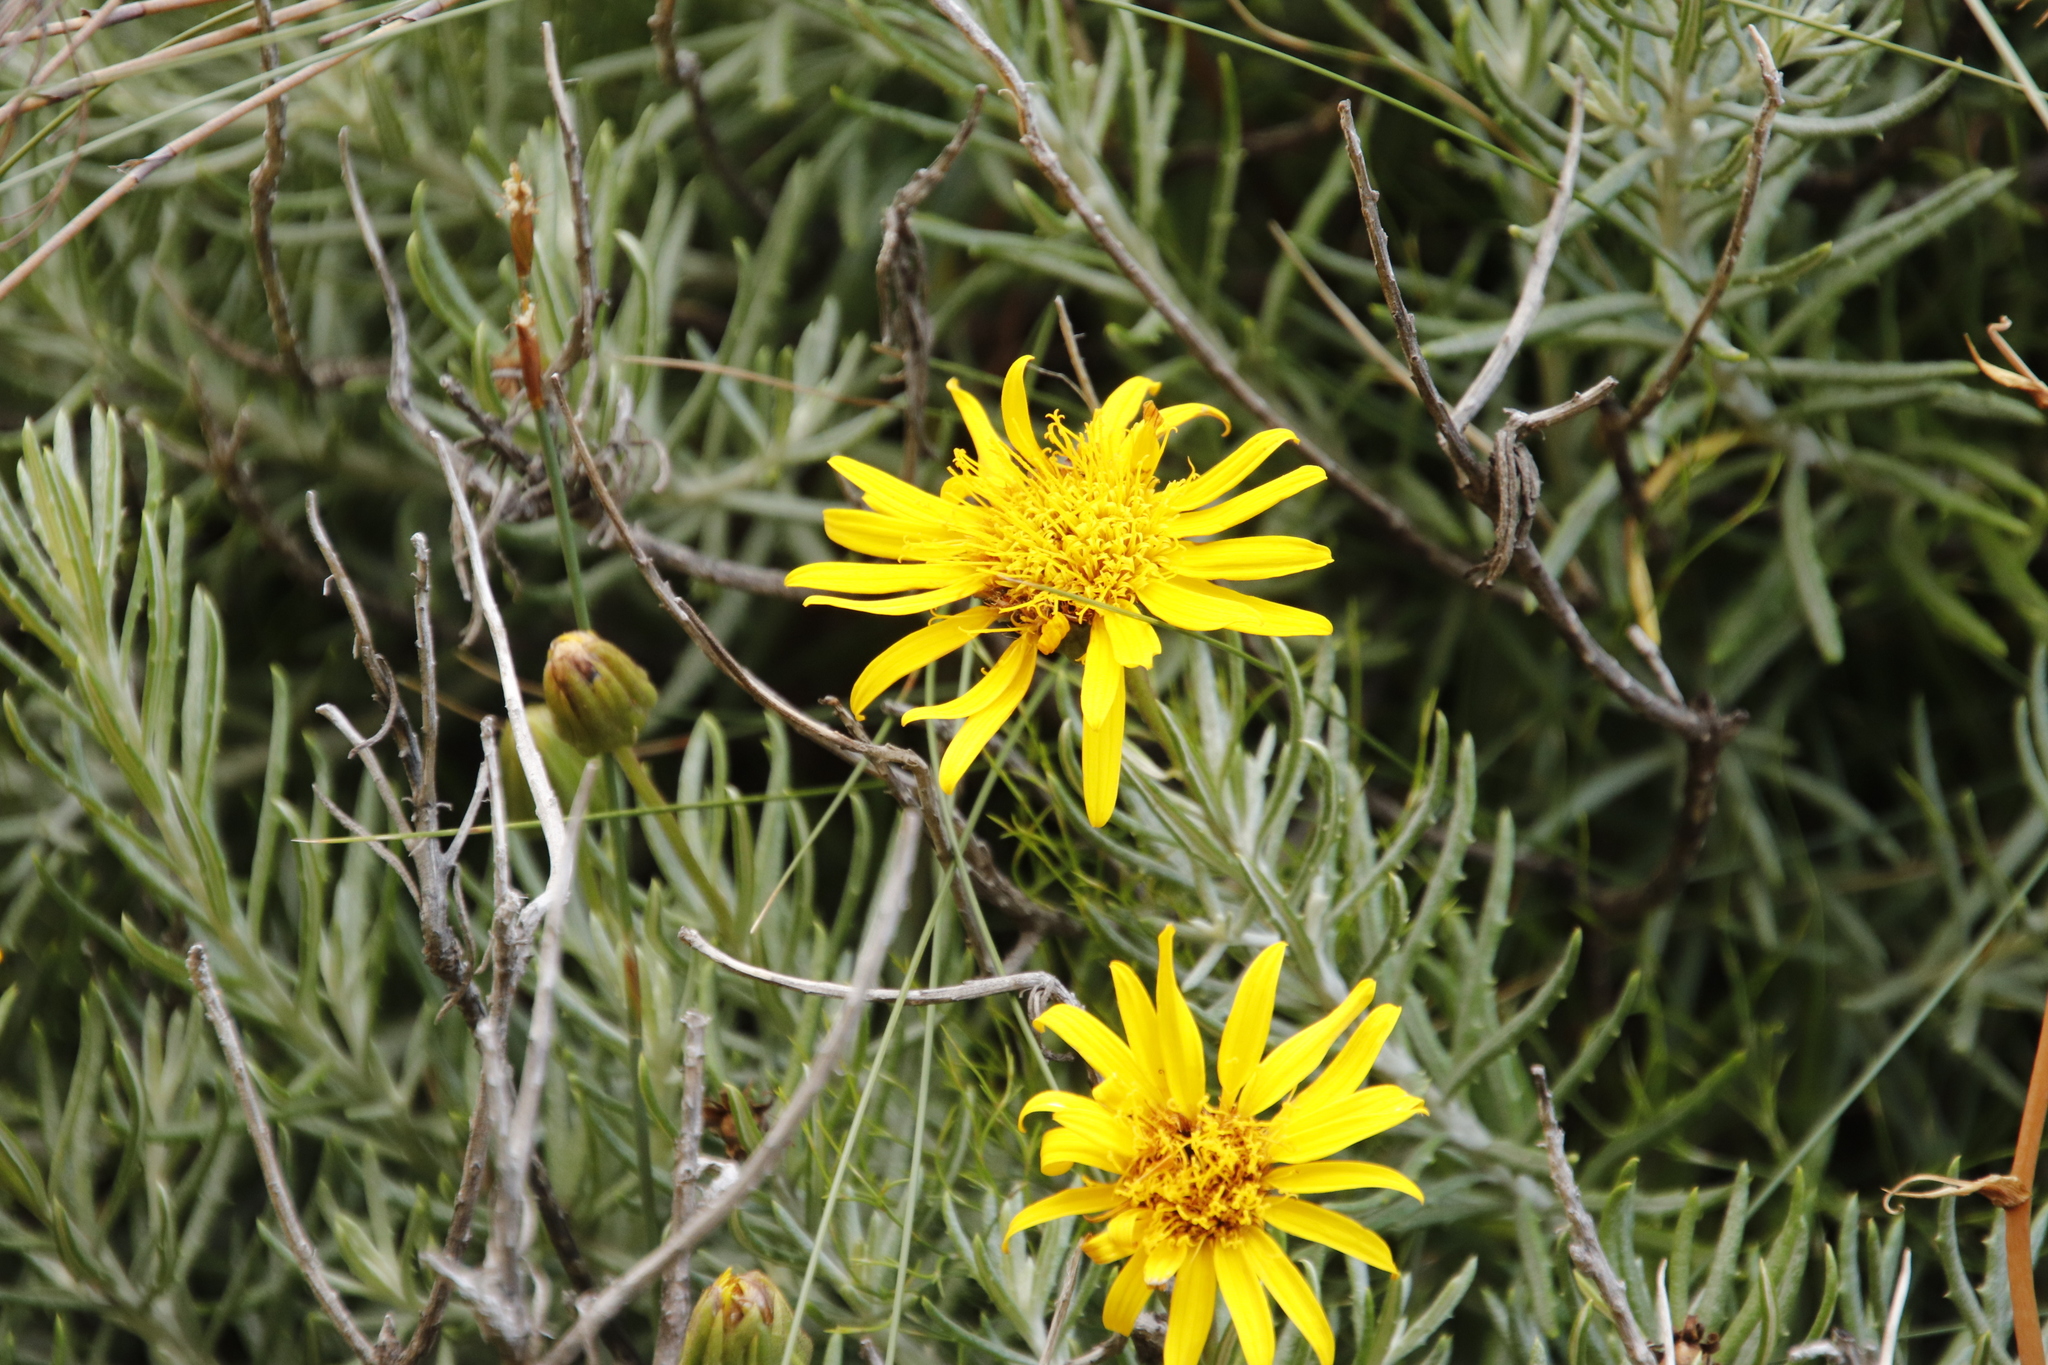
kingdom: Plantae
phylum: Tracheophyta
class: Magnoliopsida
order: Asterales
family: Asteraceae
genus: Heterolepis
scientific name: Heterolepis aliena
